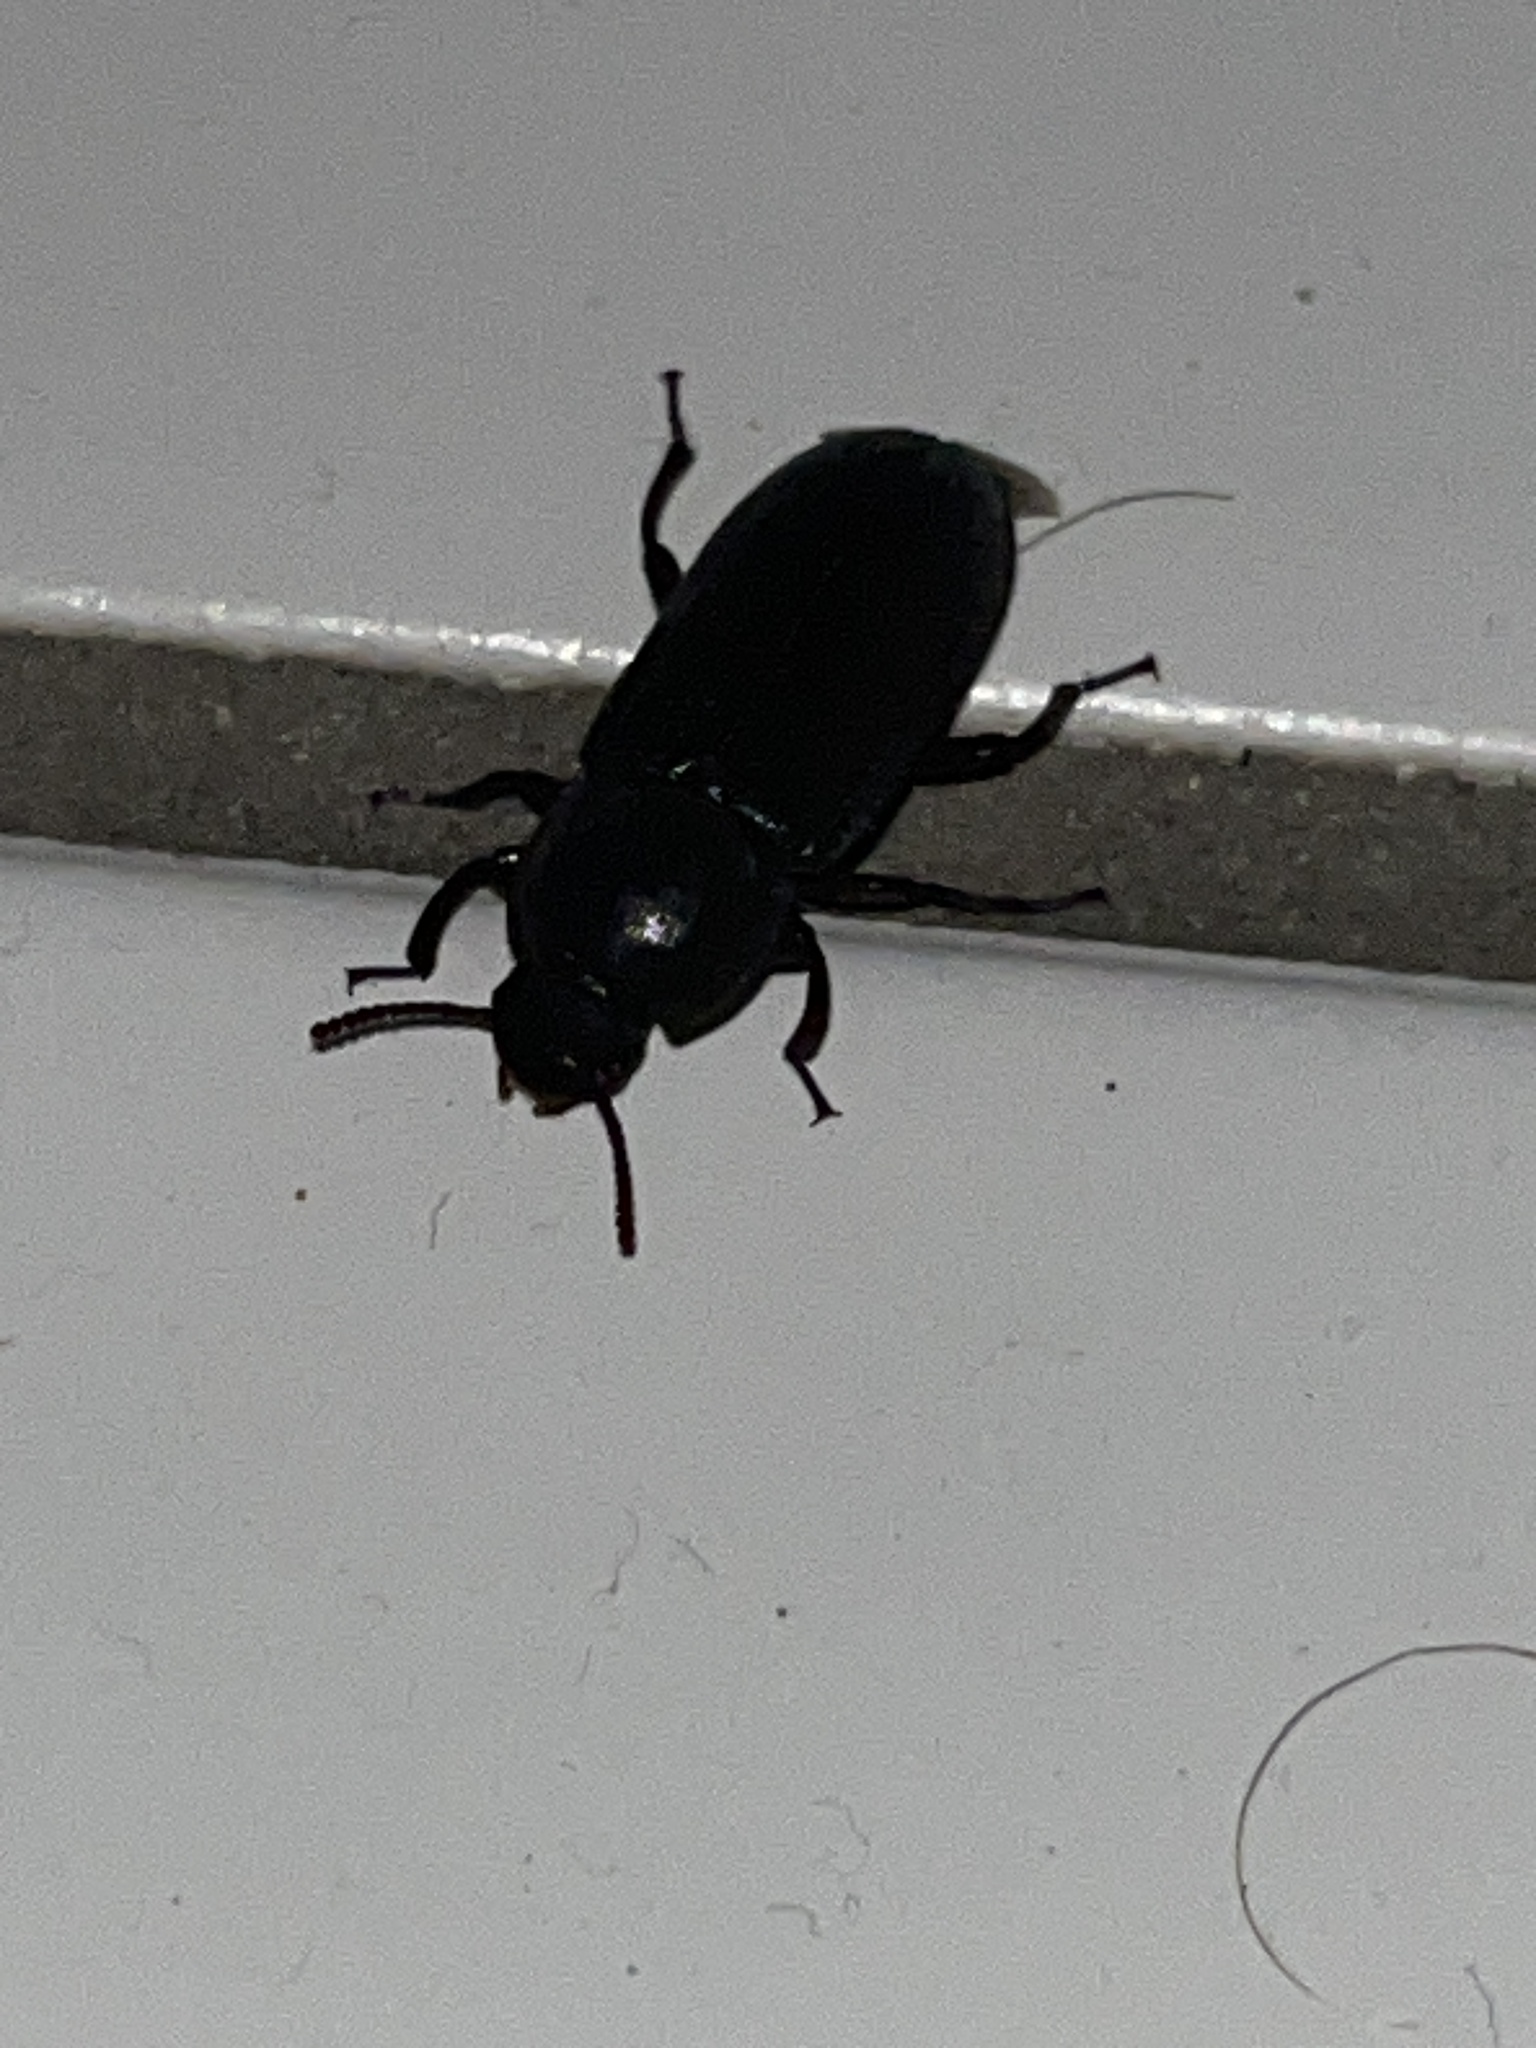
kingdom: Animalia
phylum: Arthropoda
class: Insecta
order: Coleoptera
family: Tenebrionidae
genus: Tenebrio
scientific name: Tenebrio molitor
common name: Hardback beetle
